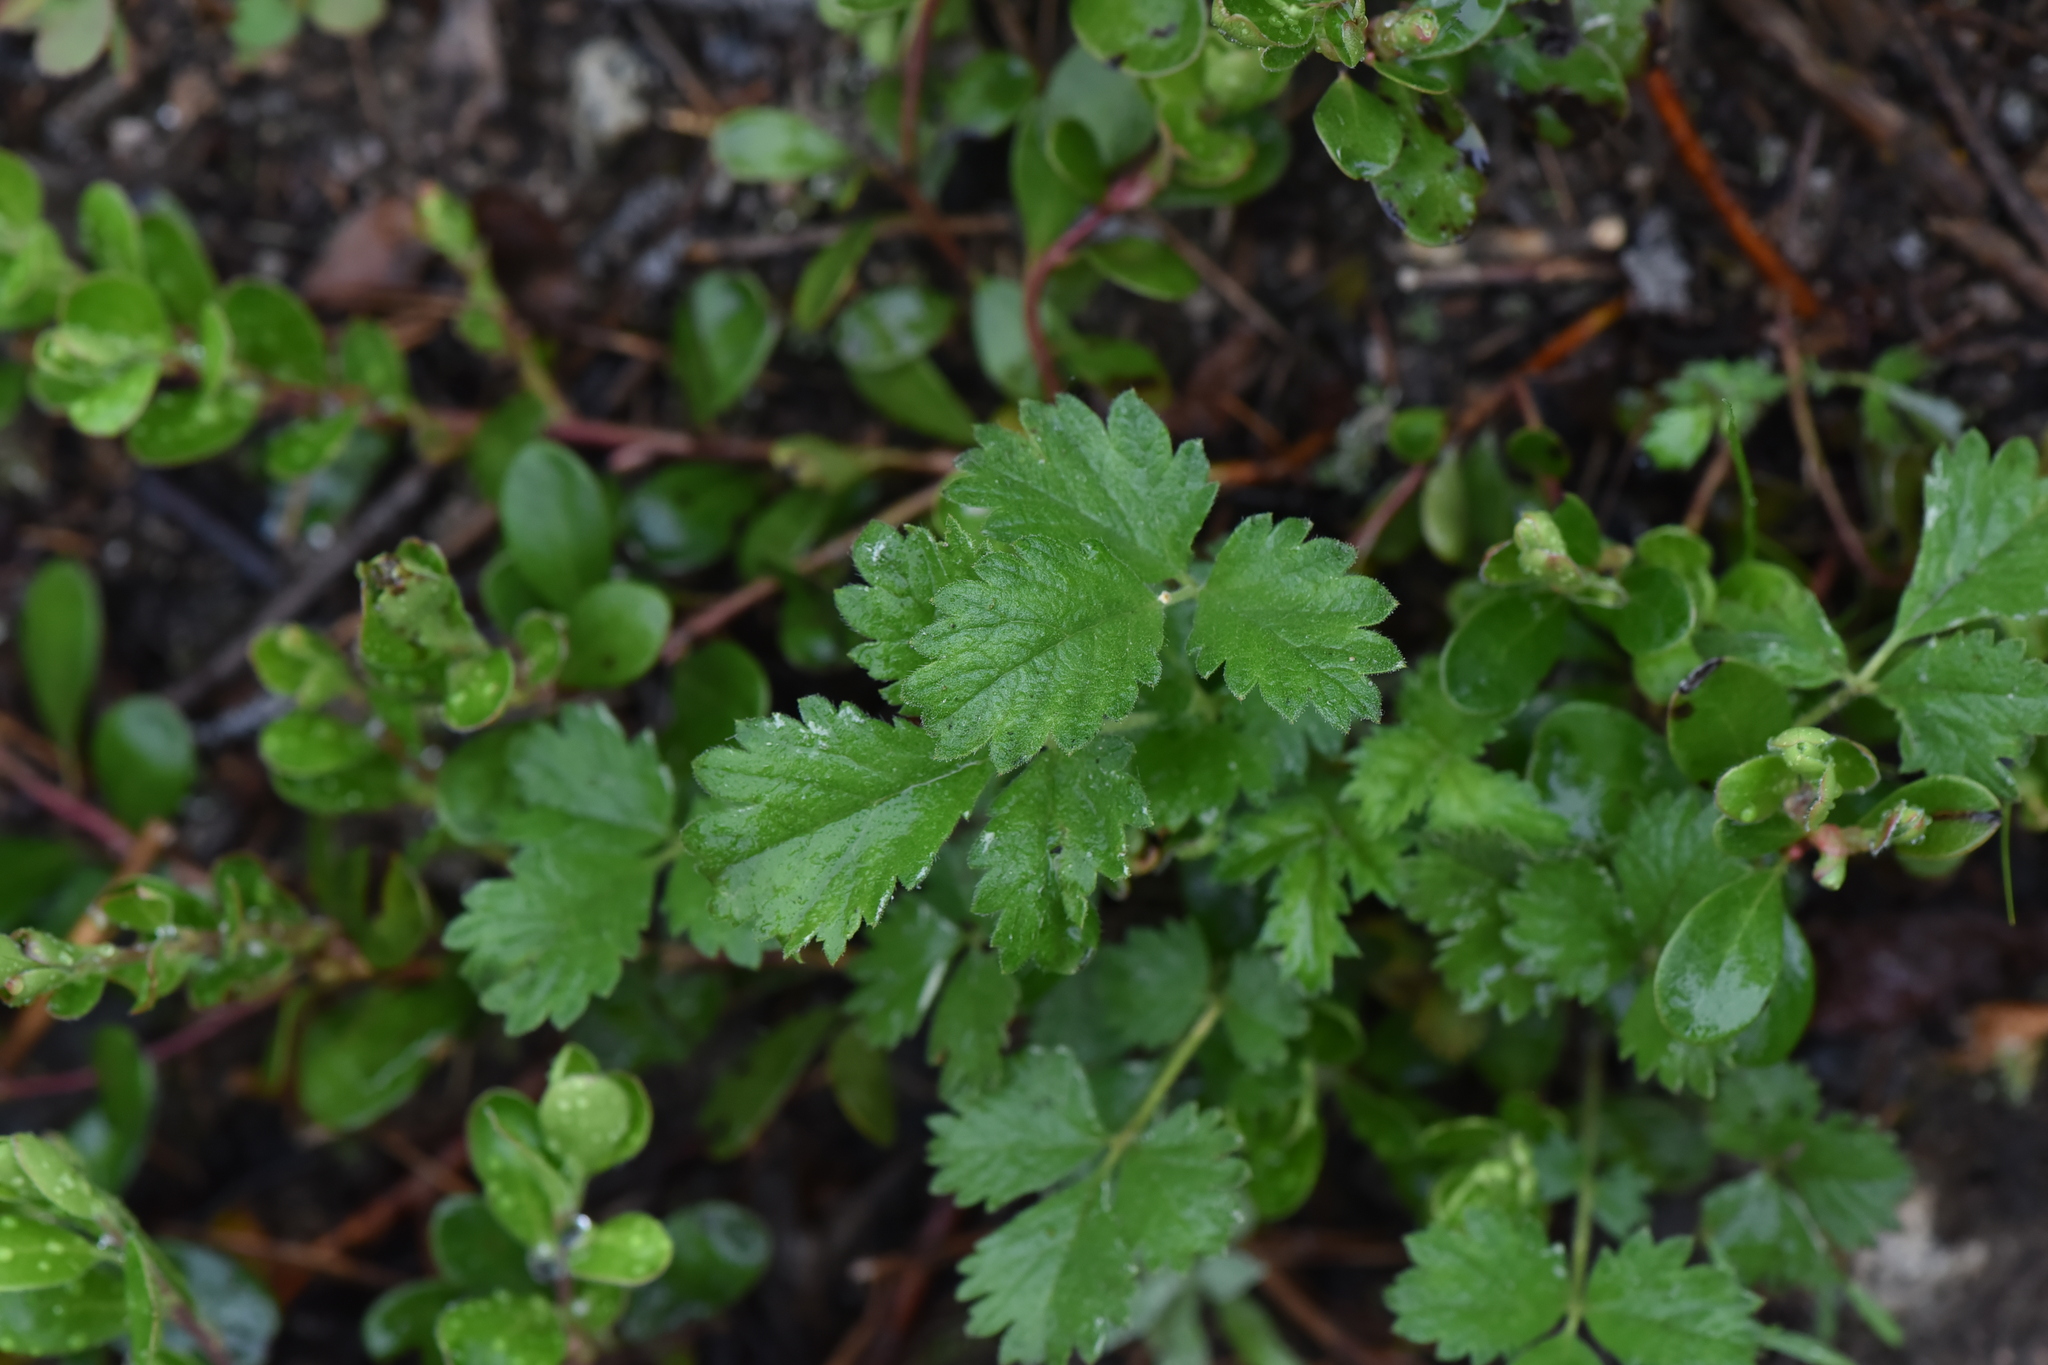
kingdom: Plantae
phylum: Tracheophyta
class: Magnoliopsida
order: Rosales
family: Rosaceae
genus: Drymocallis
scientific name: Drymocallis convallaria
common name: Cream cinquefoil
